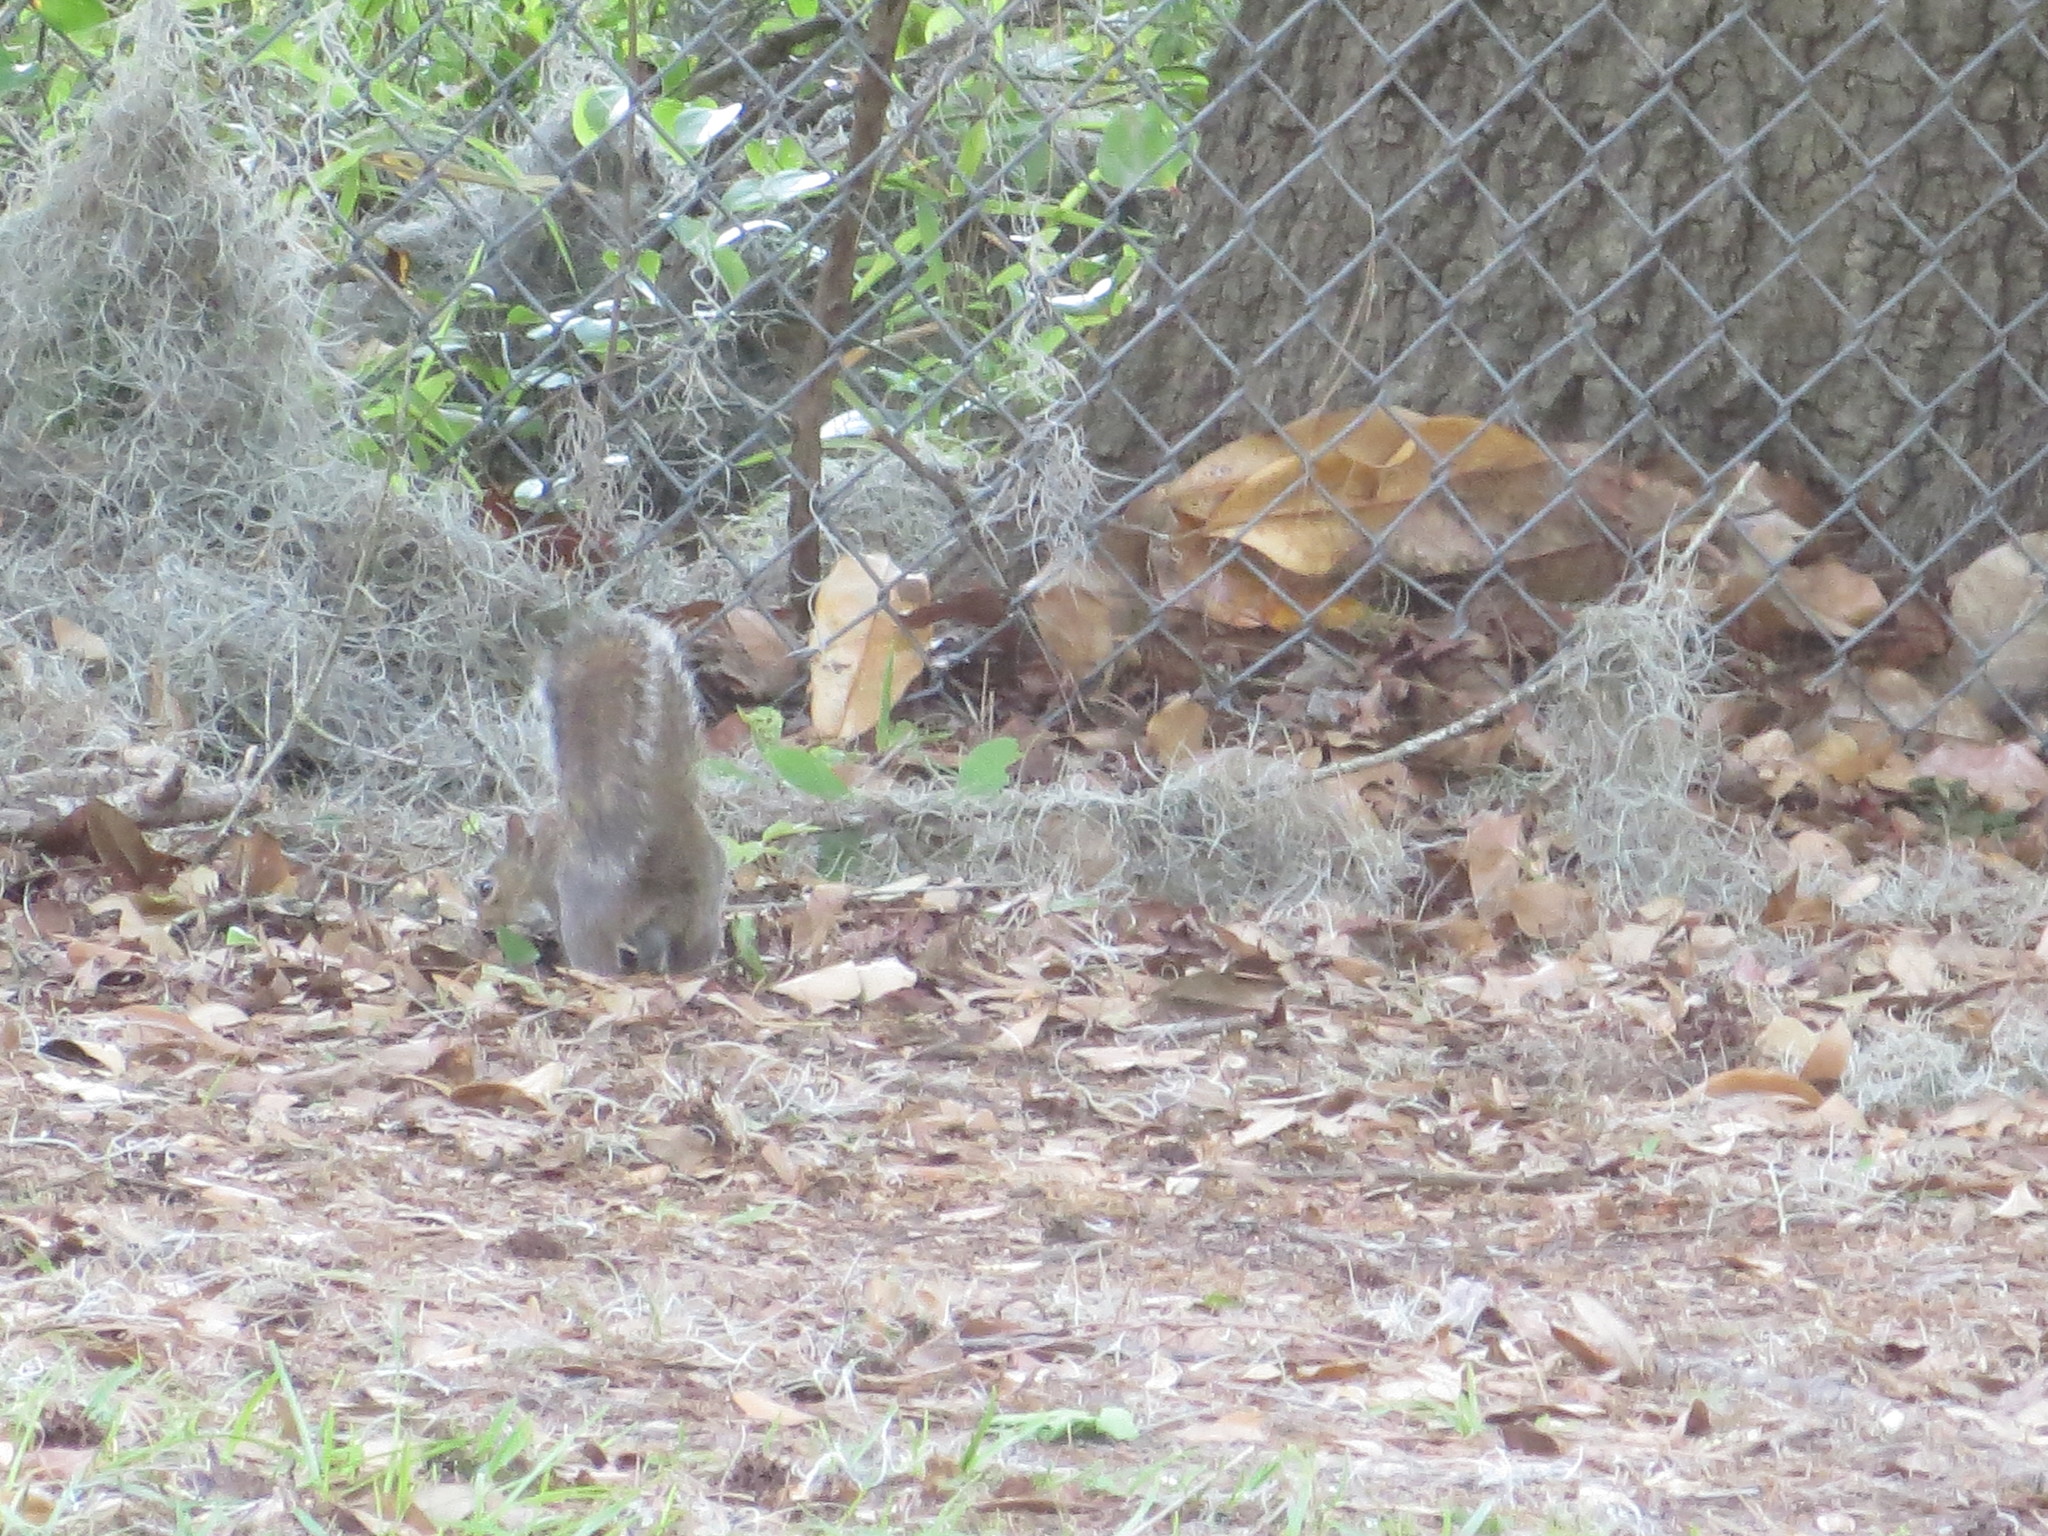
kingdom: Animalia
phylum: Chordata
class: Mammalia
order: Rodentia
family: Sciuridae
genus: Sciurus
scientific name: Sciurus carolinensis
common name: Eastern gray squirrel
